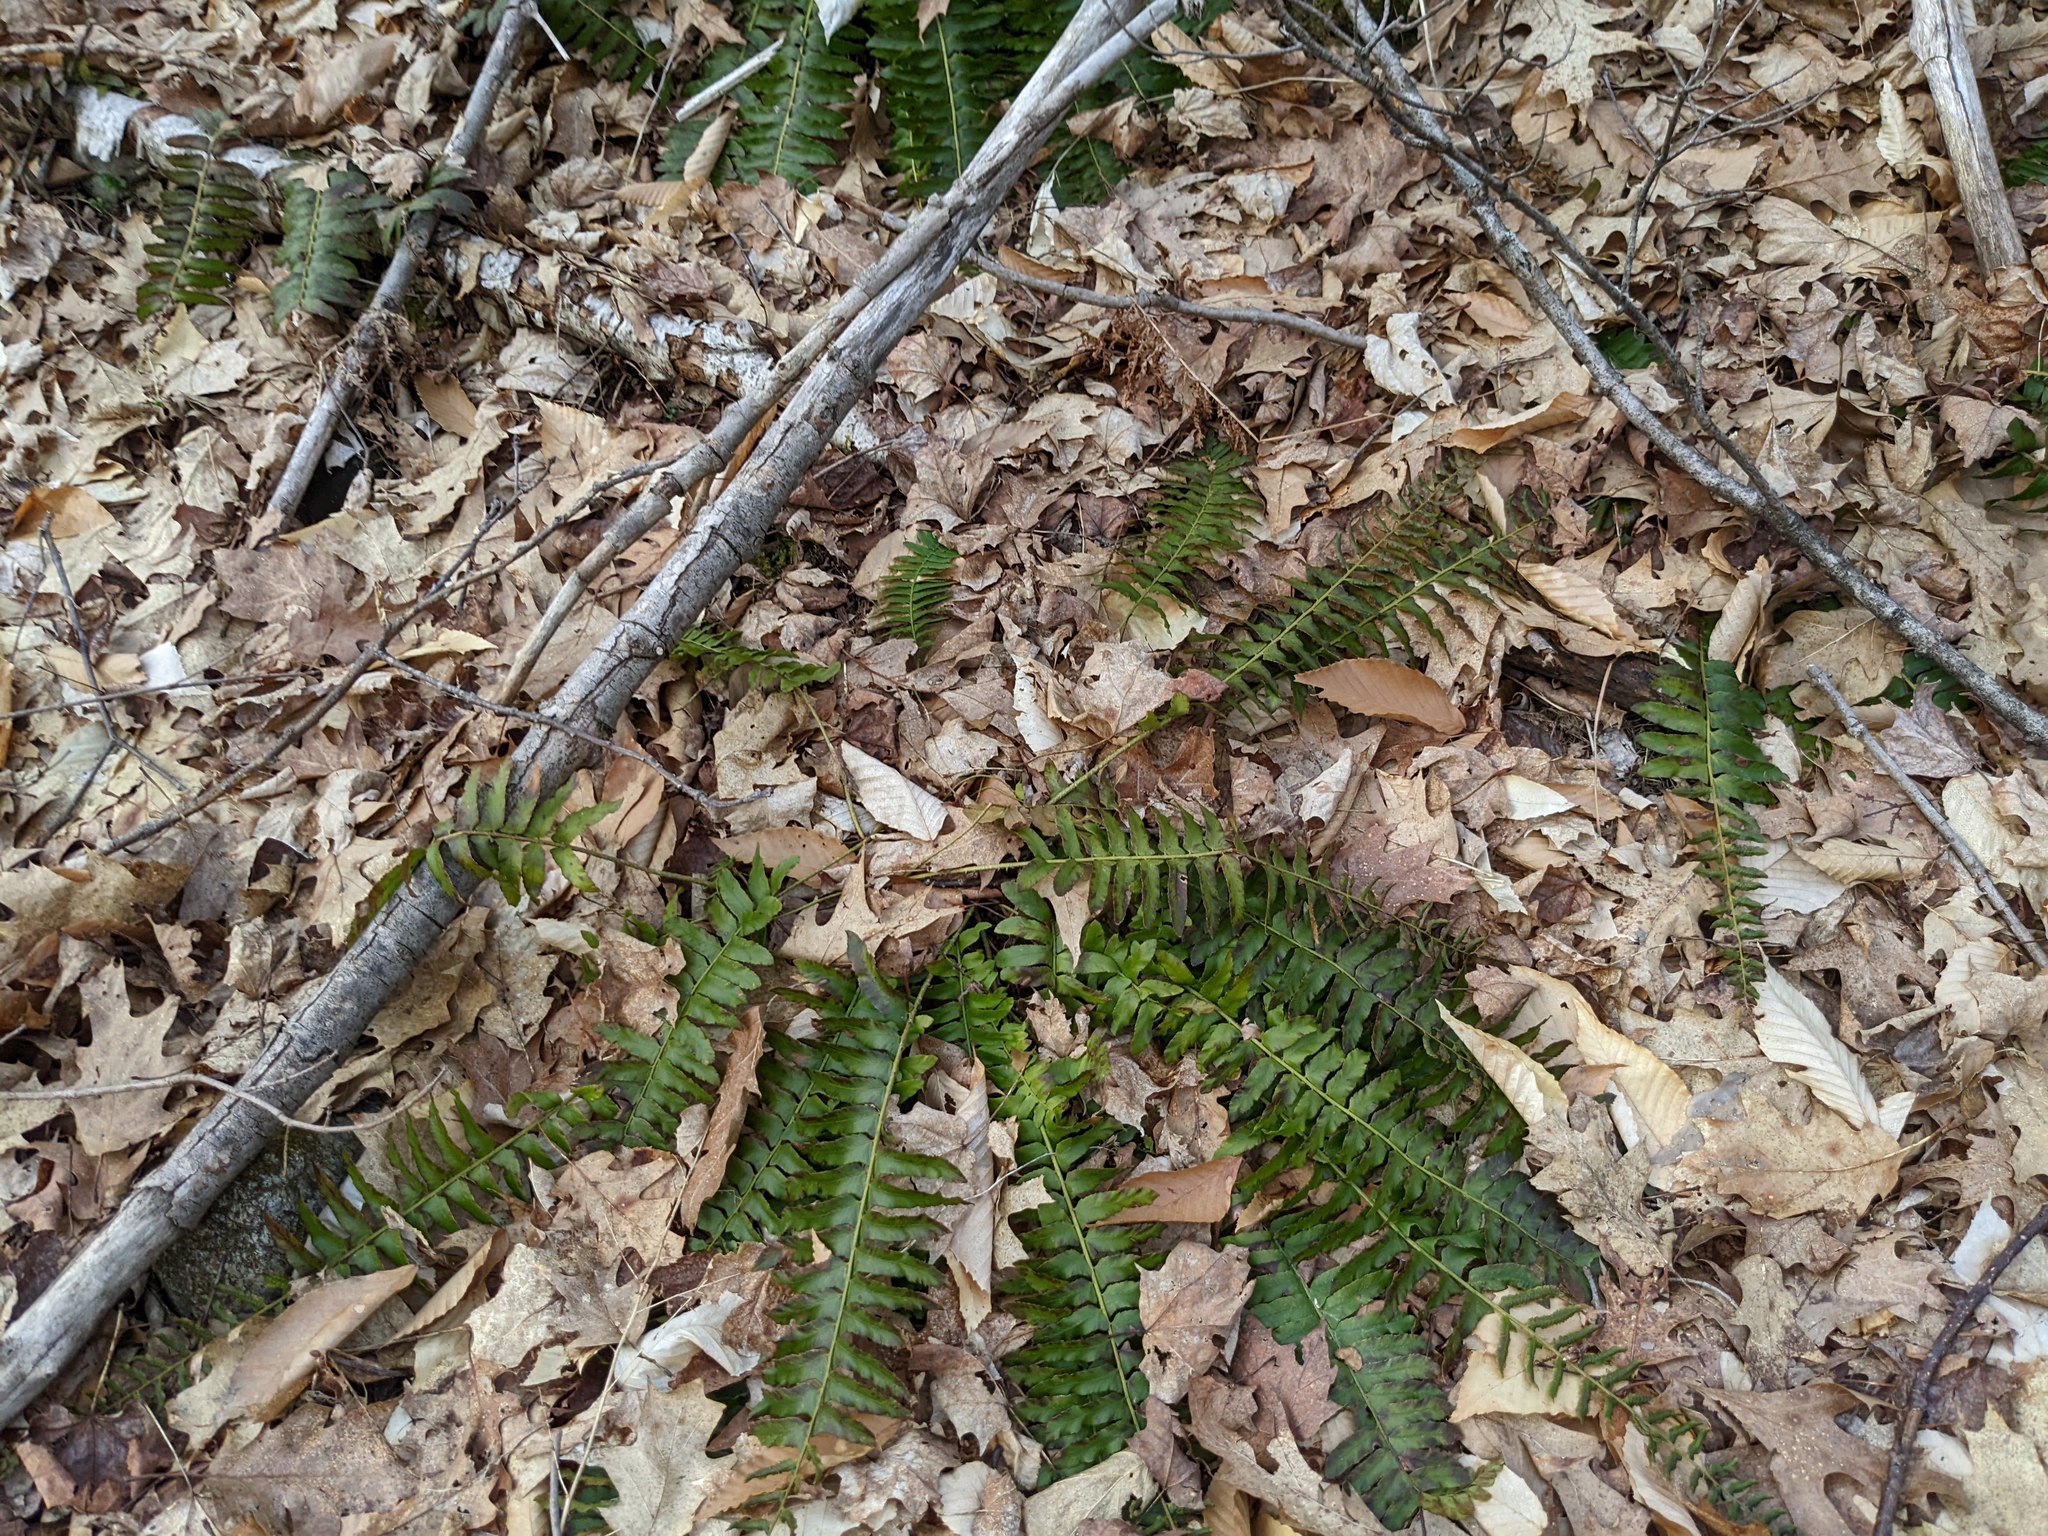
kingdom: Plantae
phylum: Tracheophyta
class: Polypodiopsida
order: Polypodiales
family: Dryopteridaceae
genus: Polystichum
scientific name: Polystichum acrostichoides
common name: Christmas fern
